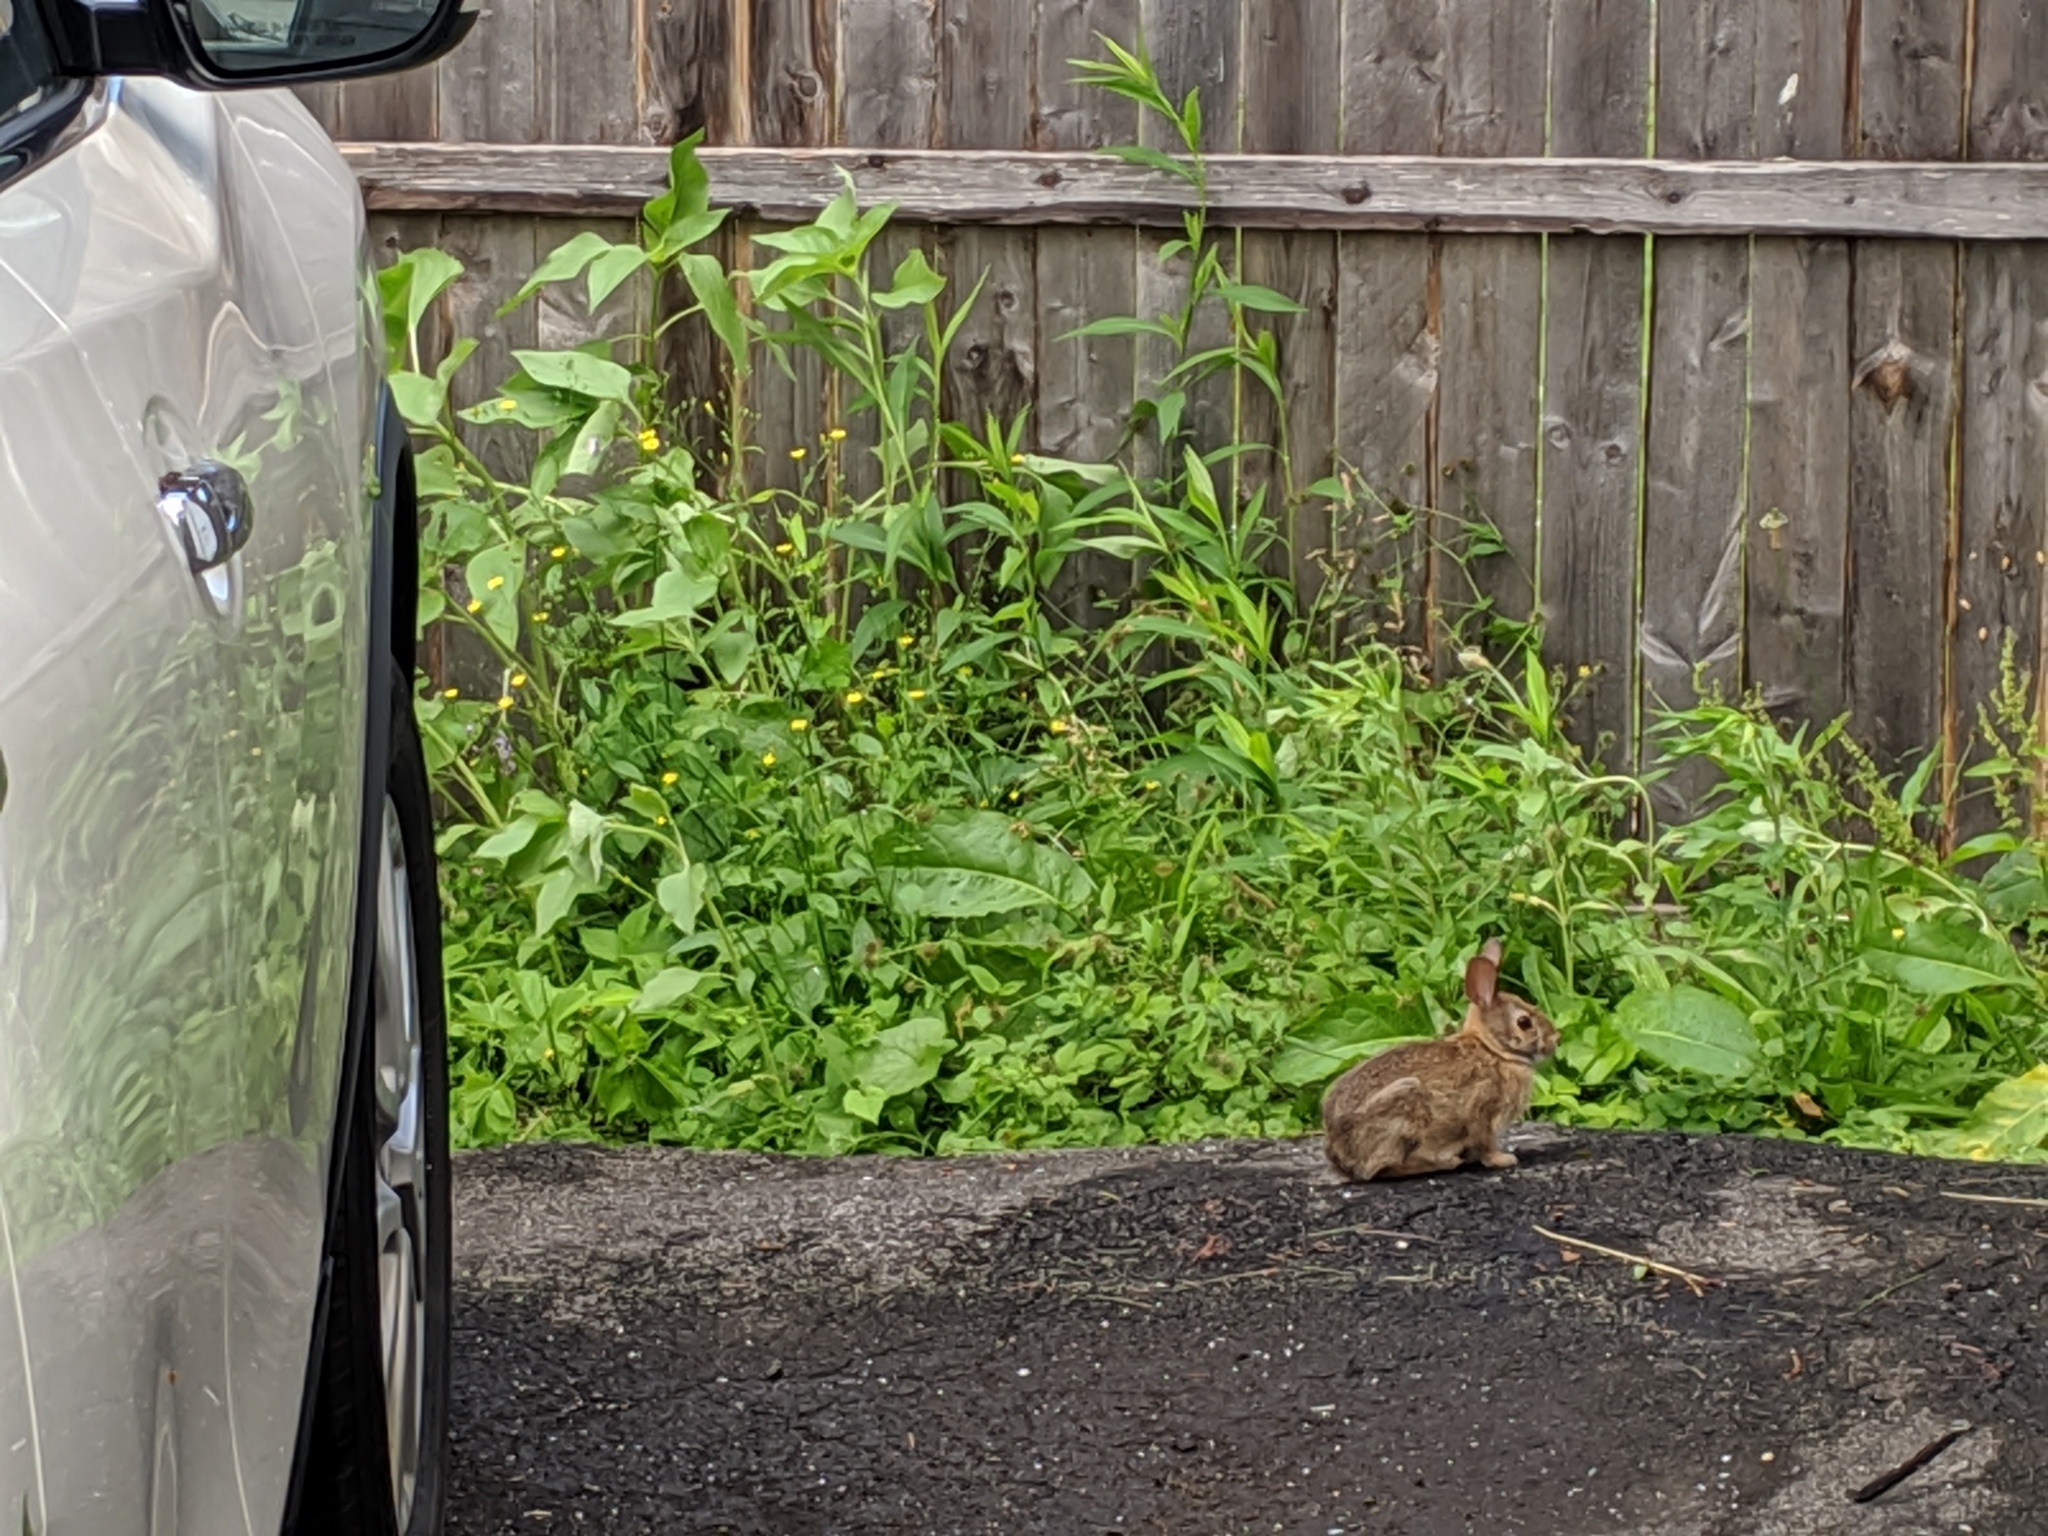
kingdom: Animalia
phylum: Chordata
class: Mammalia
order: Lagomorpha
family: Leporidae
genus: Sylvilagus
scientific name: Sylvilagus floridanus
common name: Eastern cottontail
